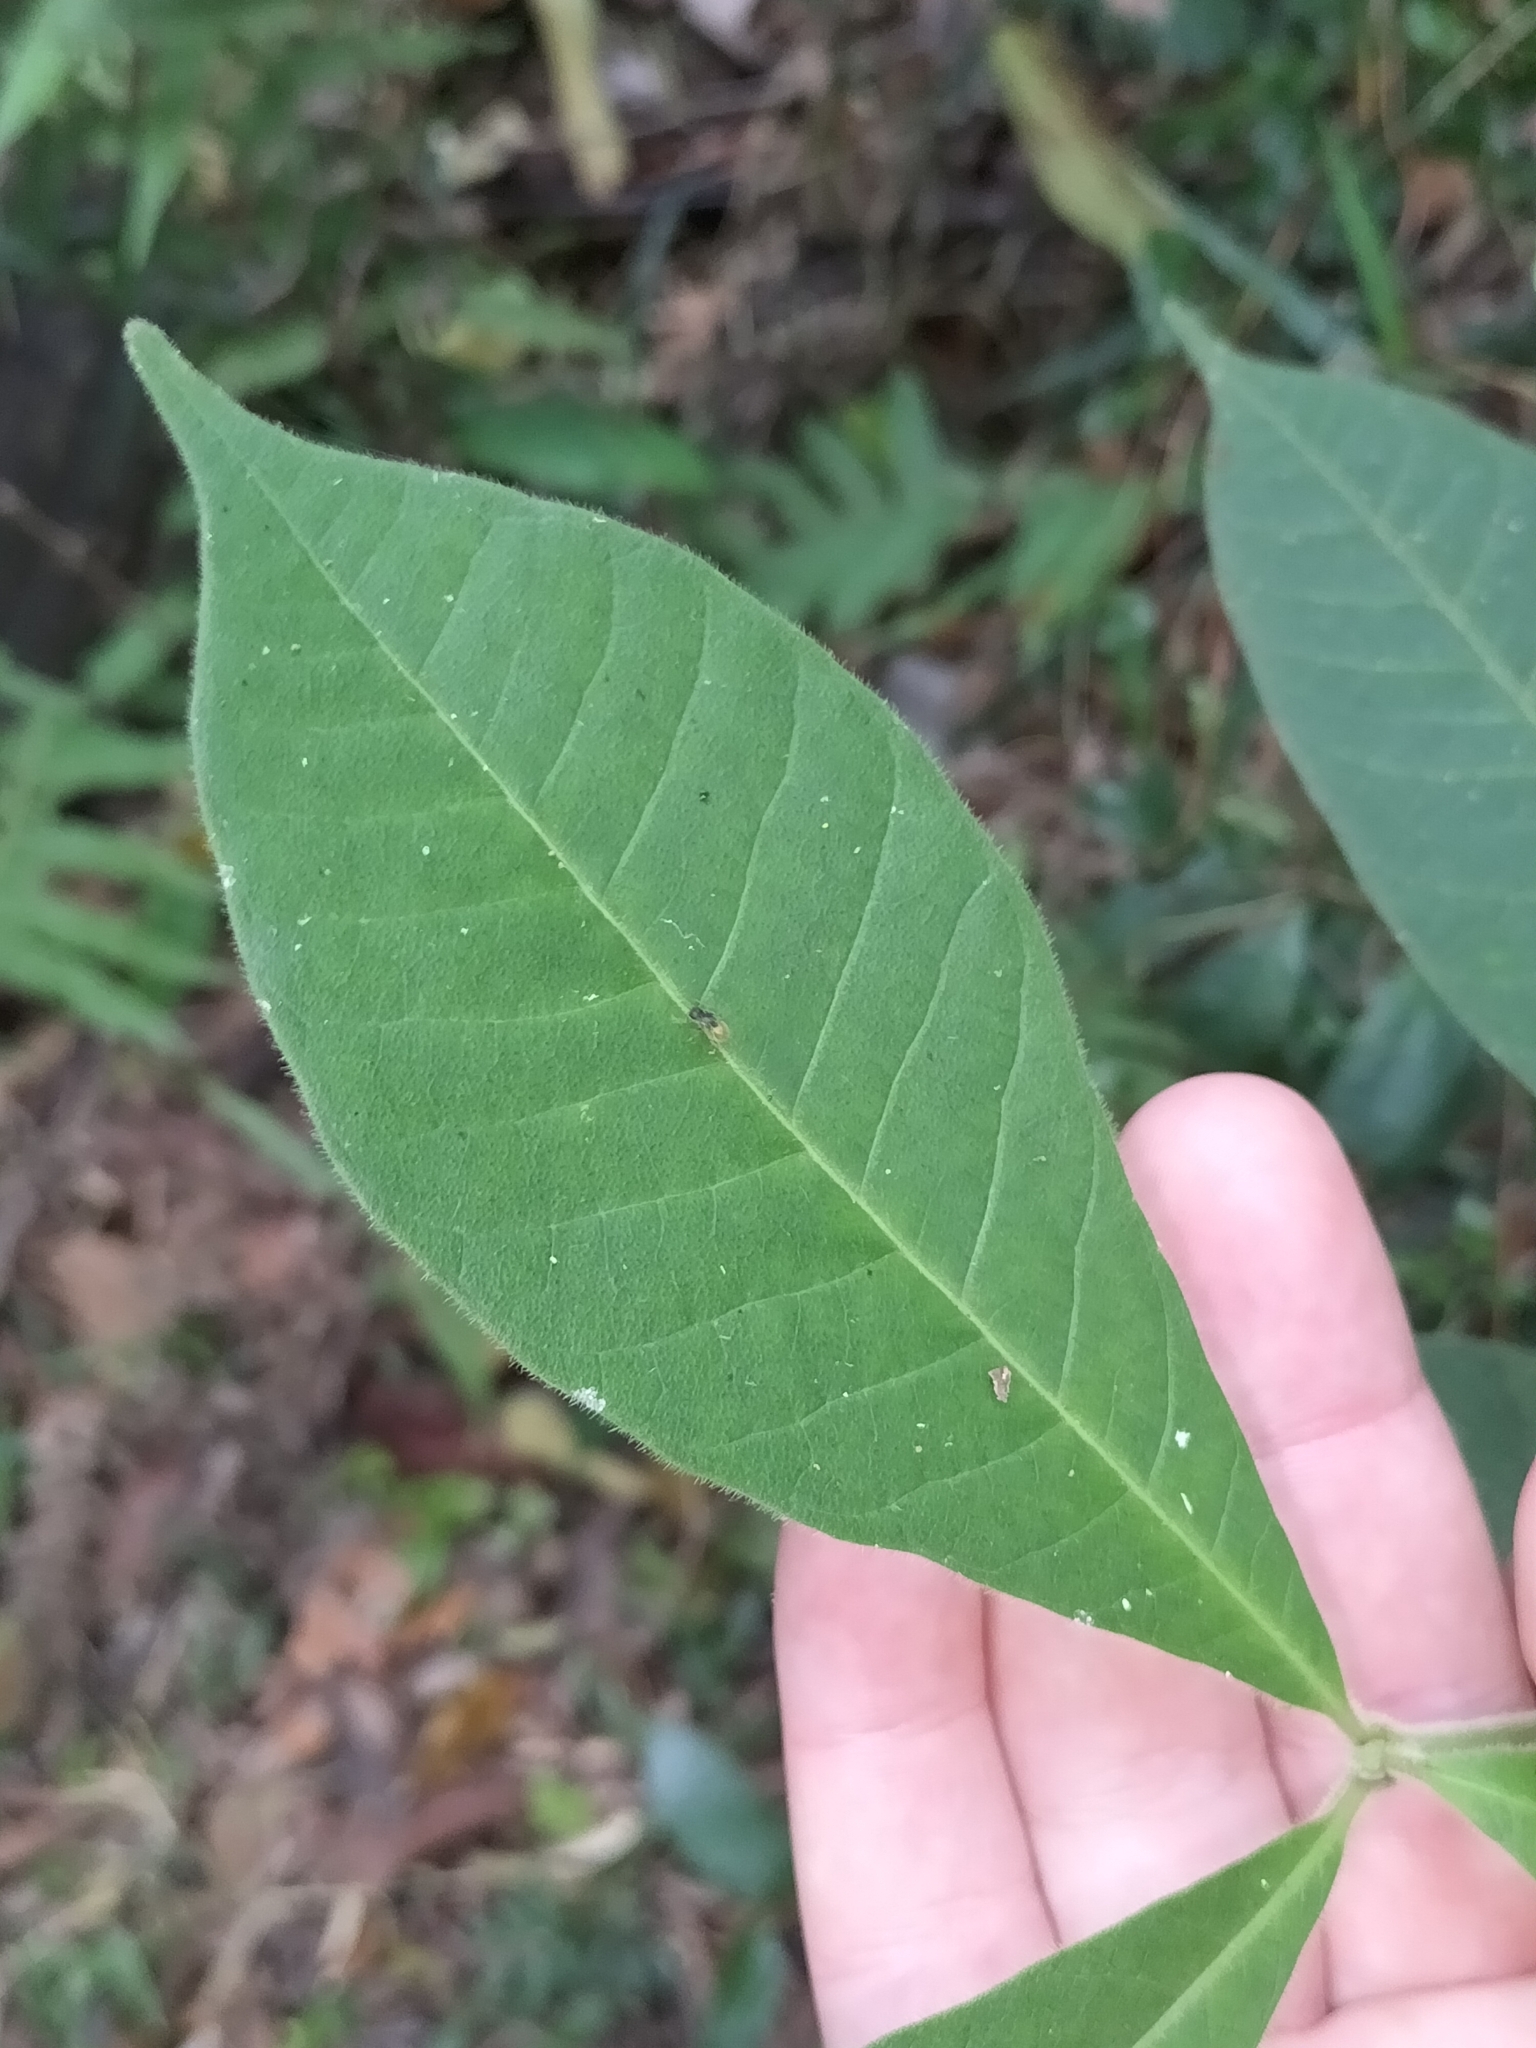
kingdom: Plantae
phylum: Tracheophyta
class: Magnoliopsida
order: Gentianales
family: Apocynaceae
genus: Alstonia
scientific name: Alstonia muelleriana
